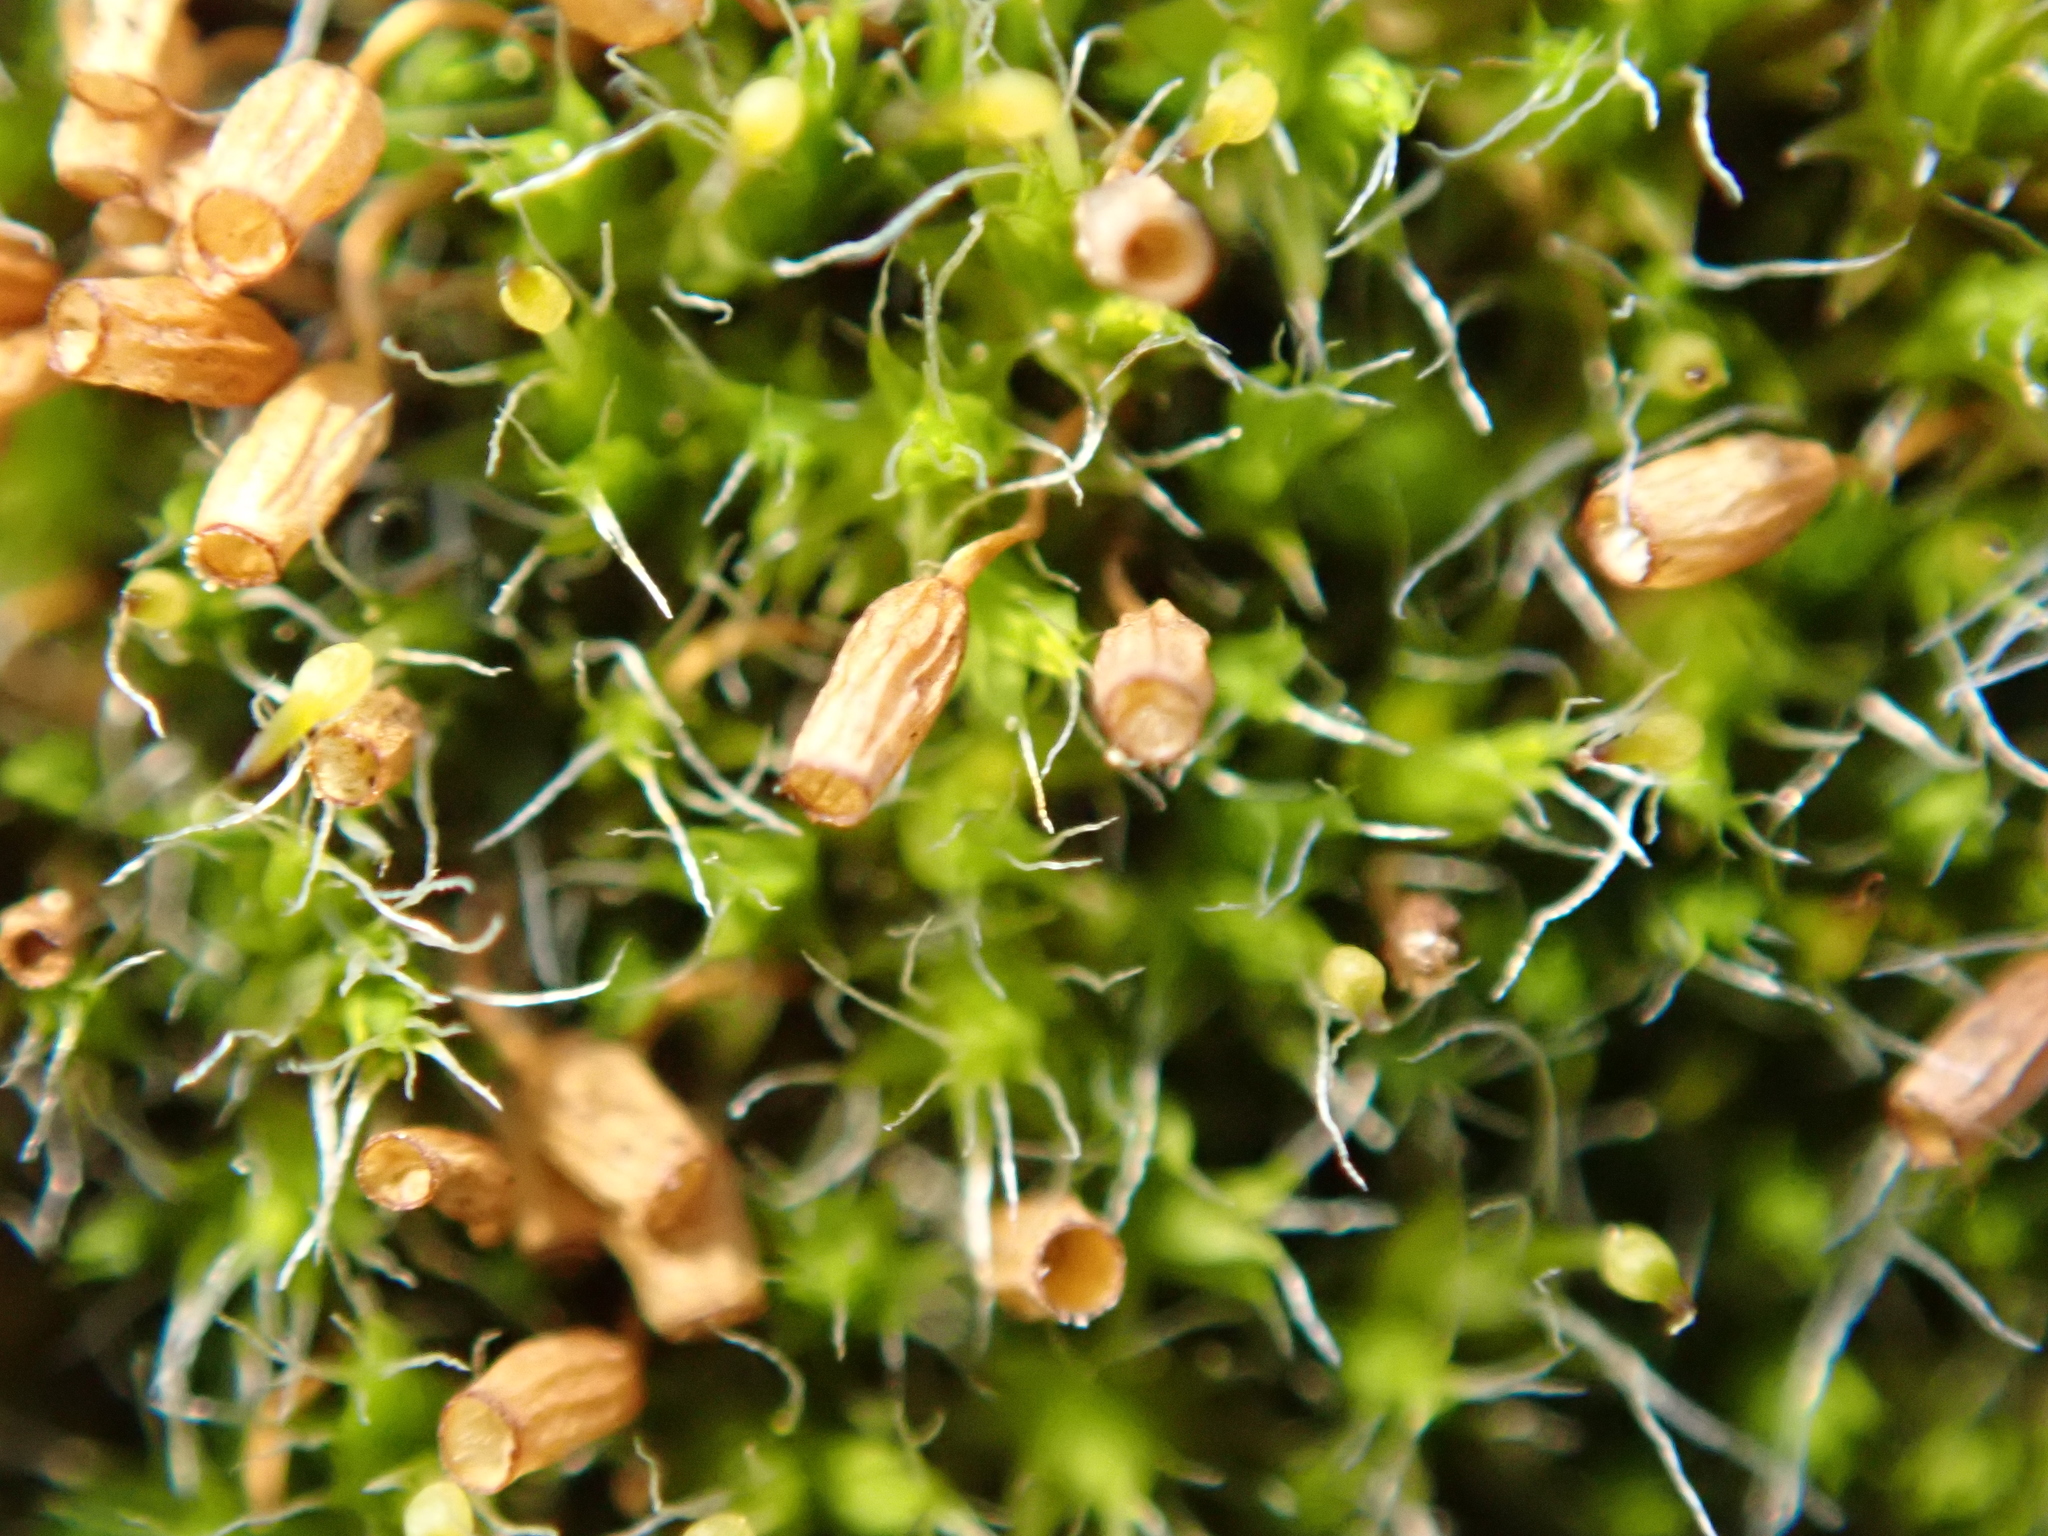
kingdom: Plantae
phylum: Bryophyta
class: Bryopsida
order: Grimmiales
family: Grimmiaceae
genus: Grimmia
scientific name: Grimmia pulvinata
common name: Grey-cushioned grimmia
